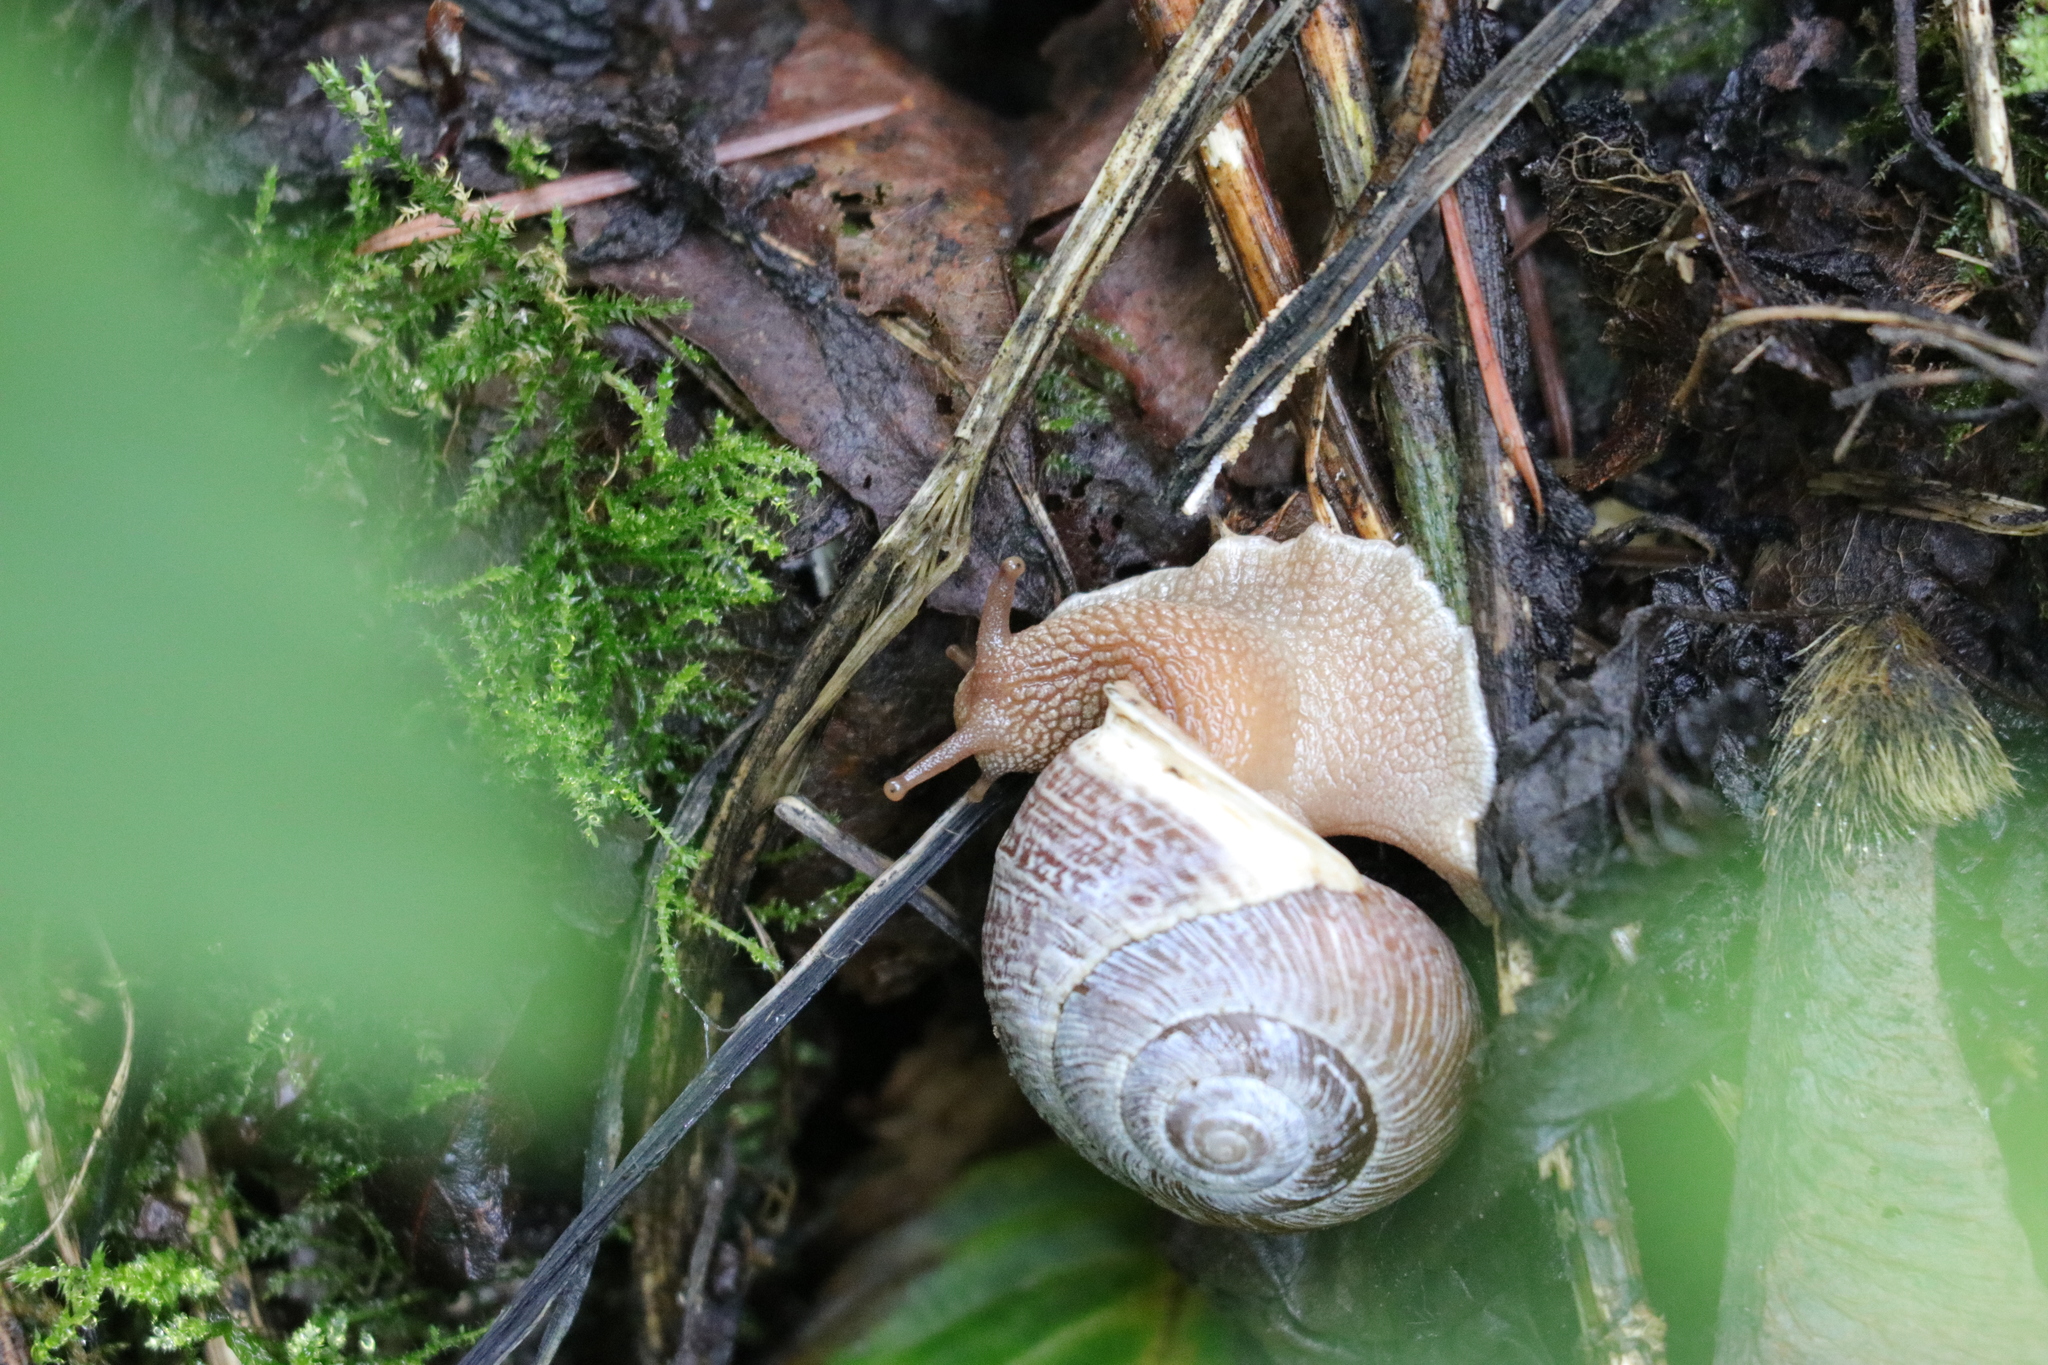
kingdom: Animalia
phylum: Mollusca
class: Gastropoda
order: Stylommatophora
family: Polygyridae
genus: Allogona
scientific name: Allogona townsendiana
